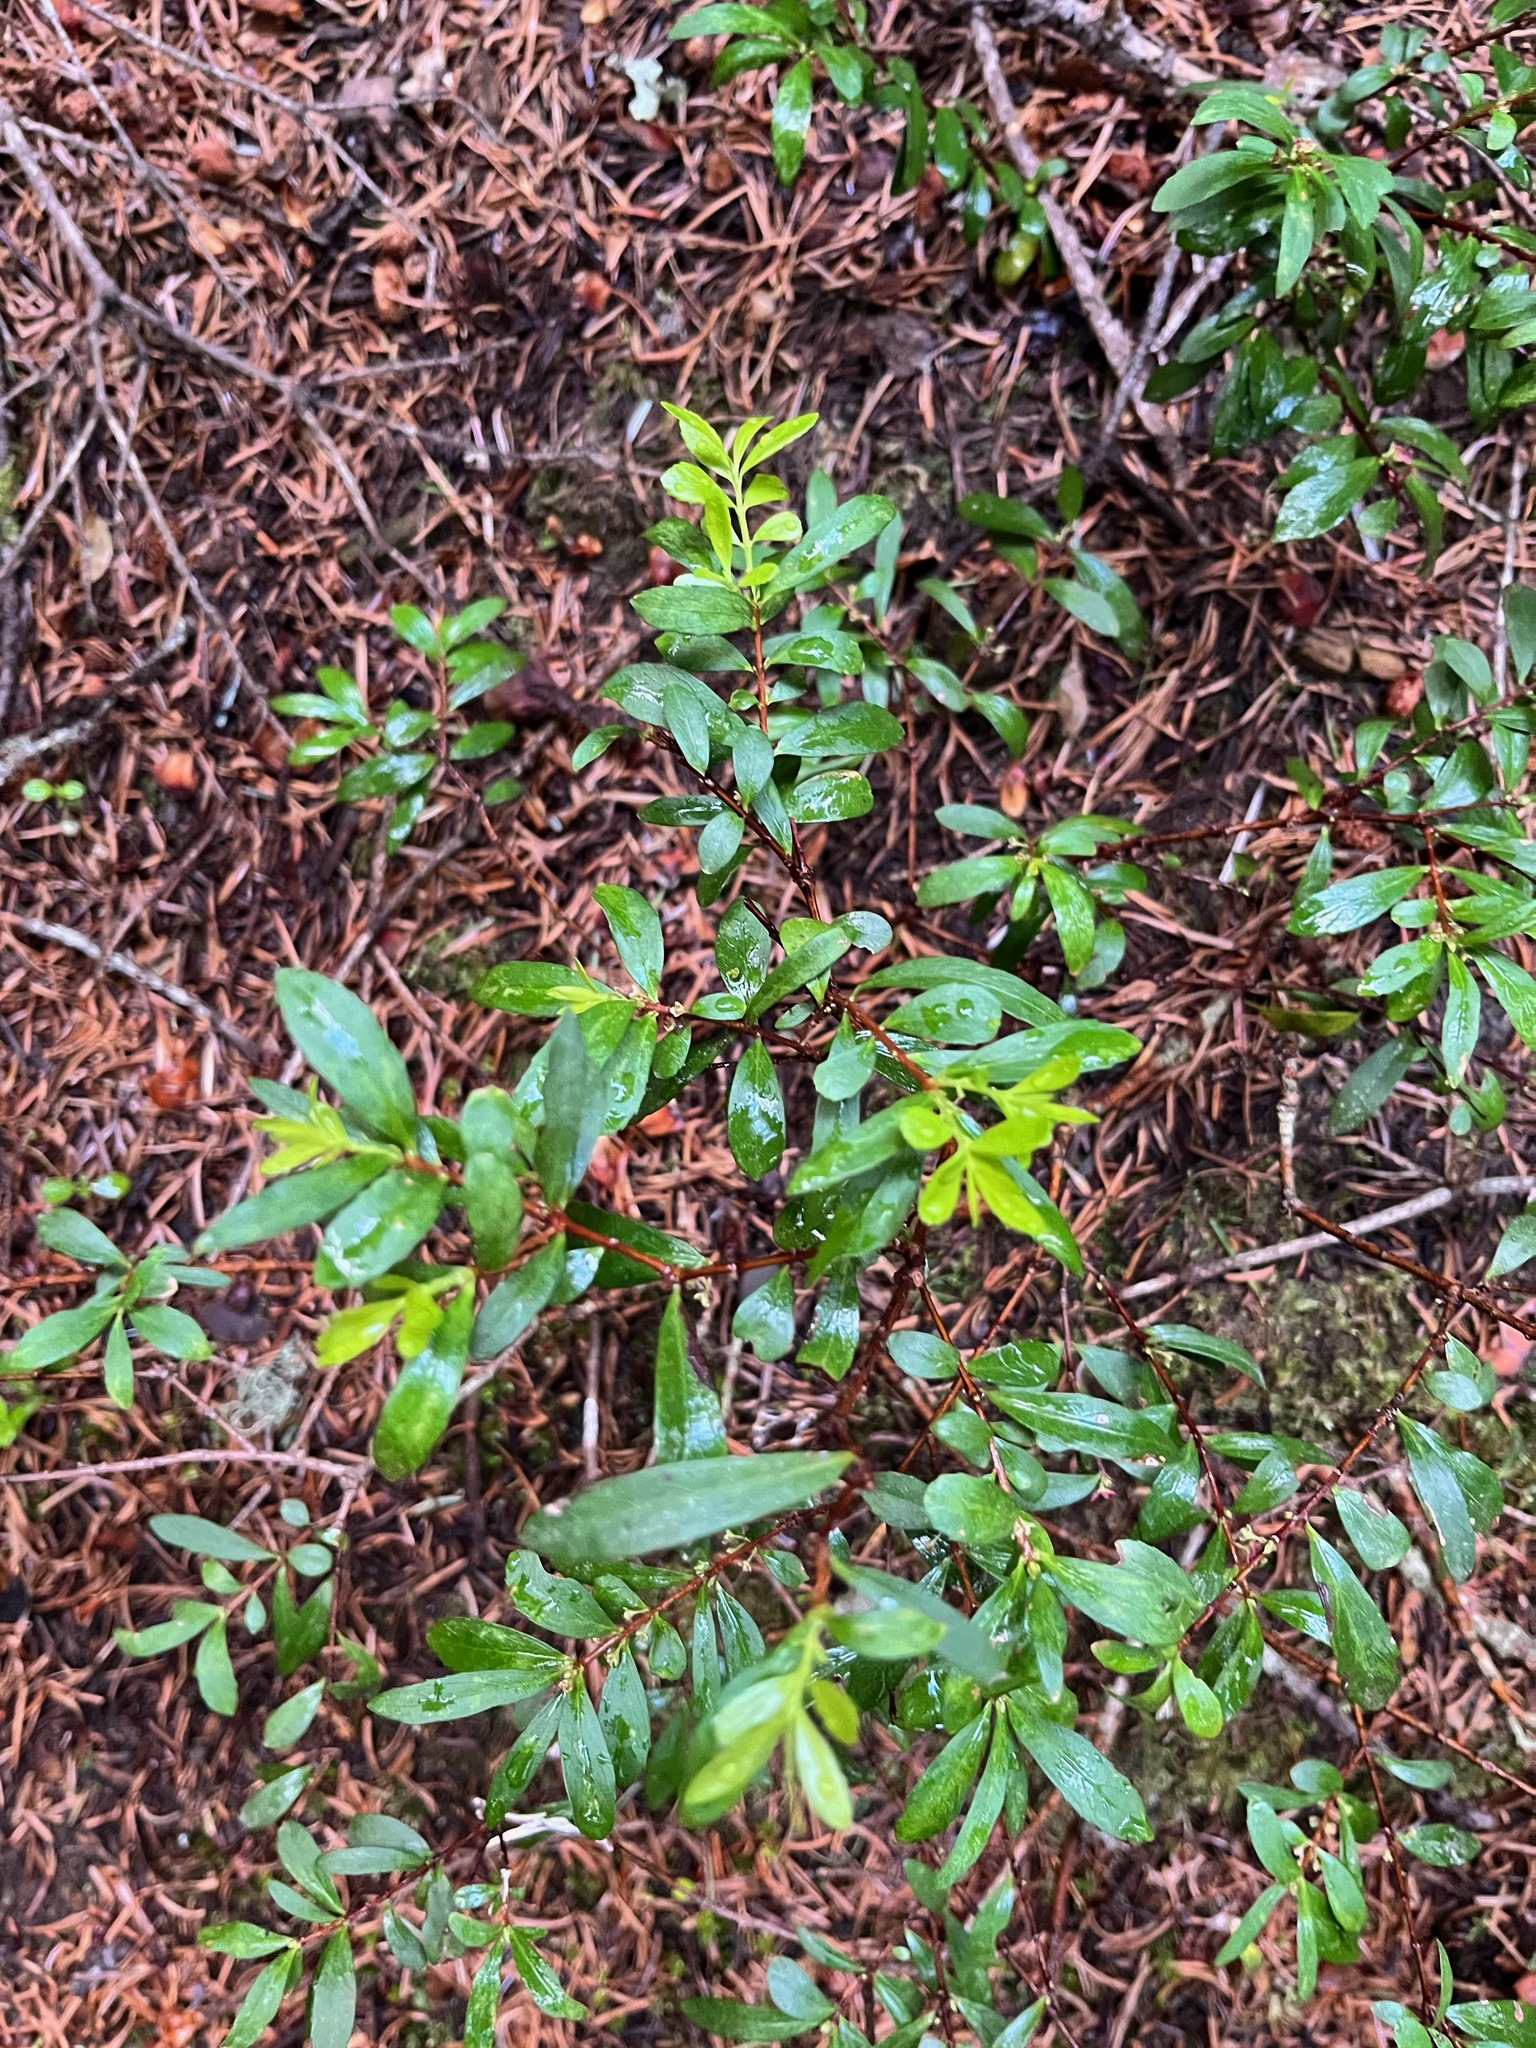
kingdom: Plantae
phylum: Tracheophyta
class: Magnoliopsida
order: Celastrales
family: Celastraceae
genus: Paxistima
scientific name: Paxistima myrsinites
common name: Mountain-lover
